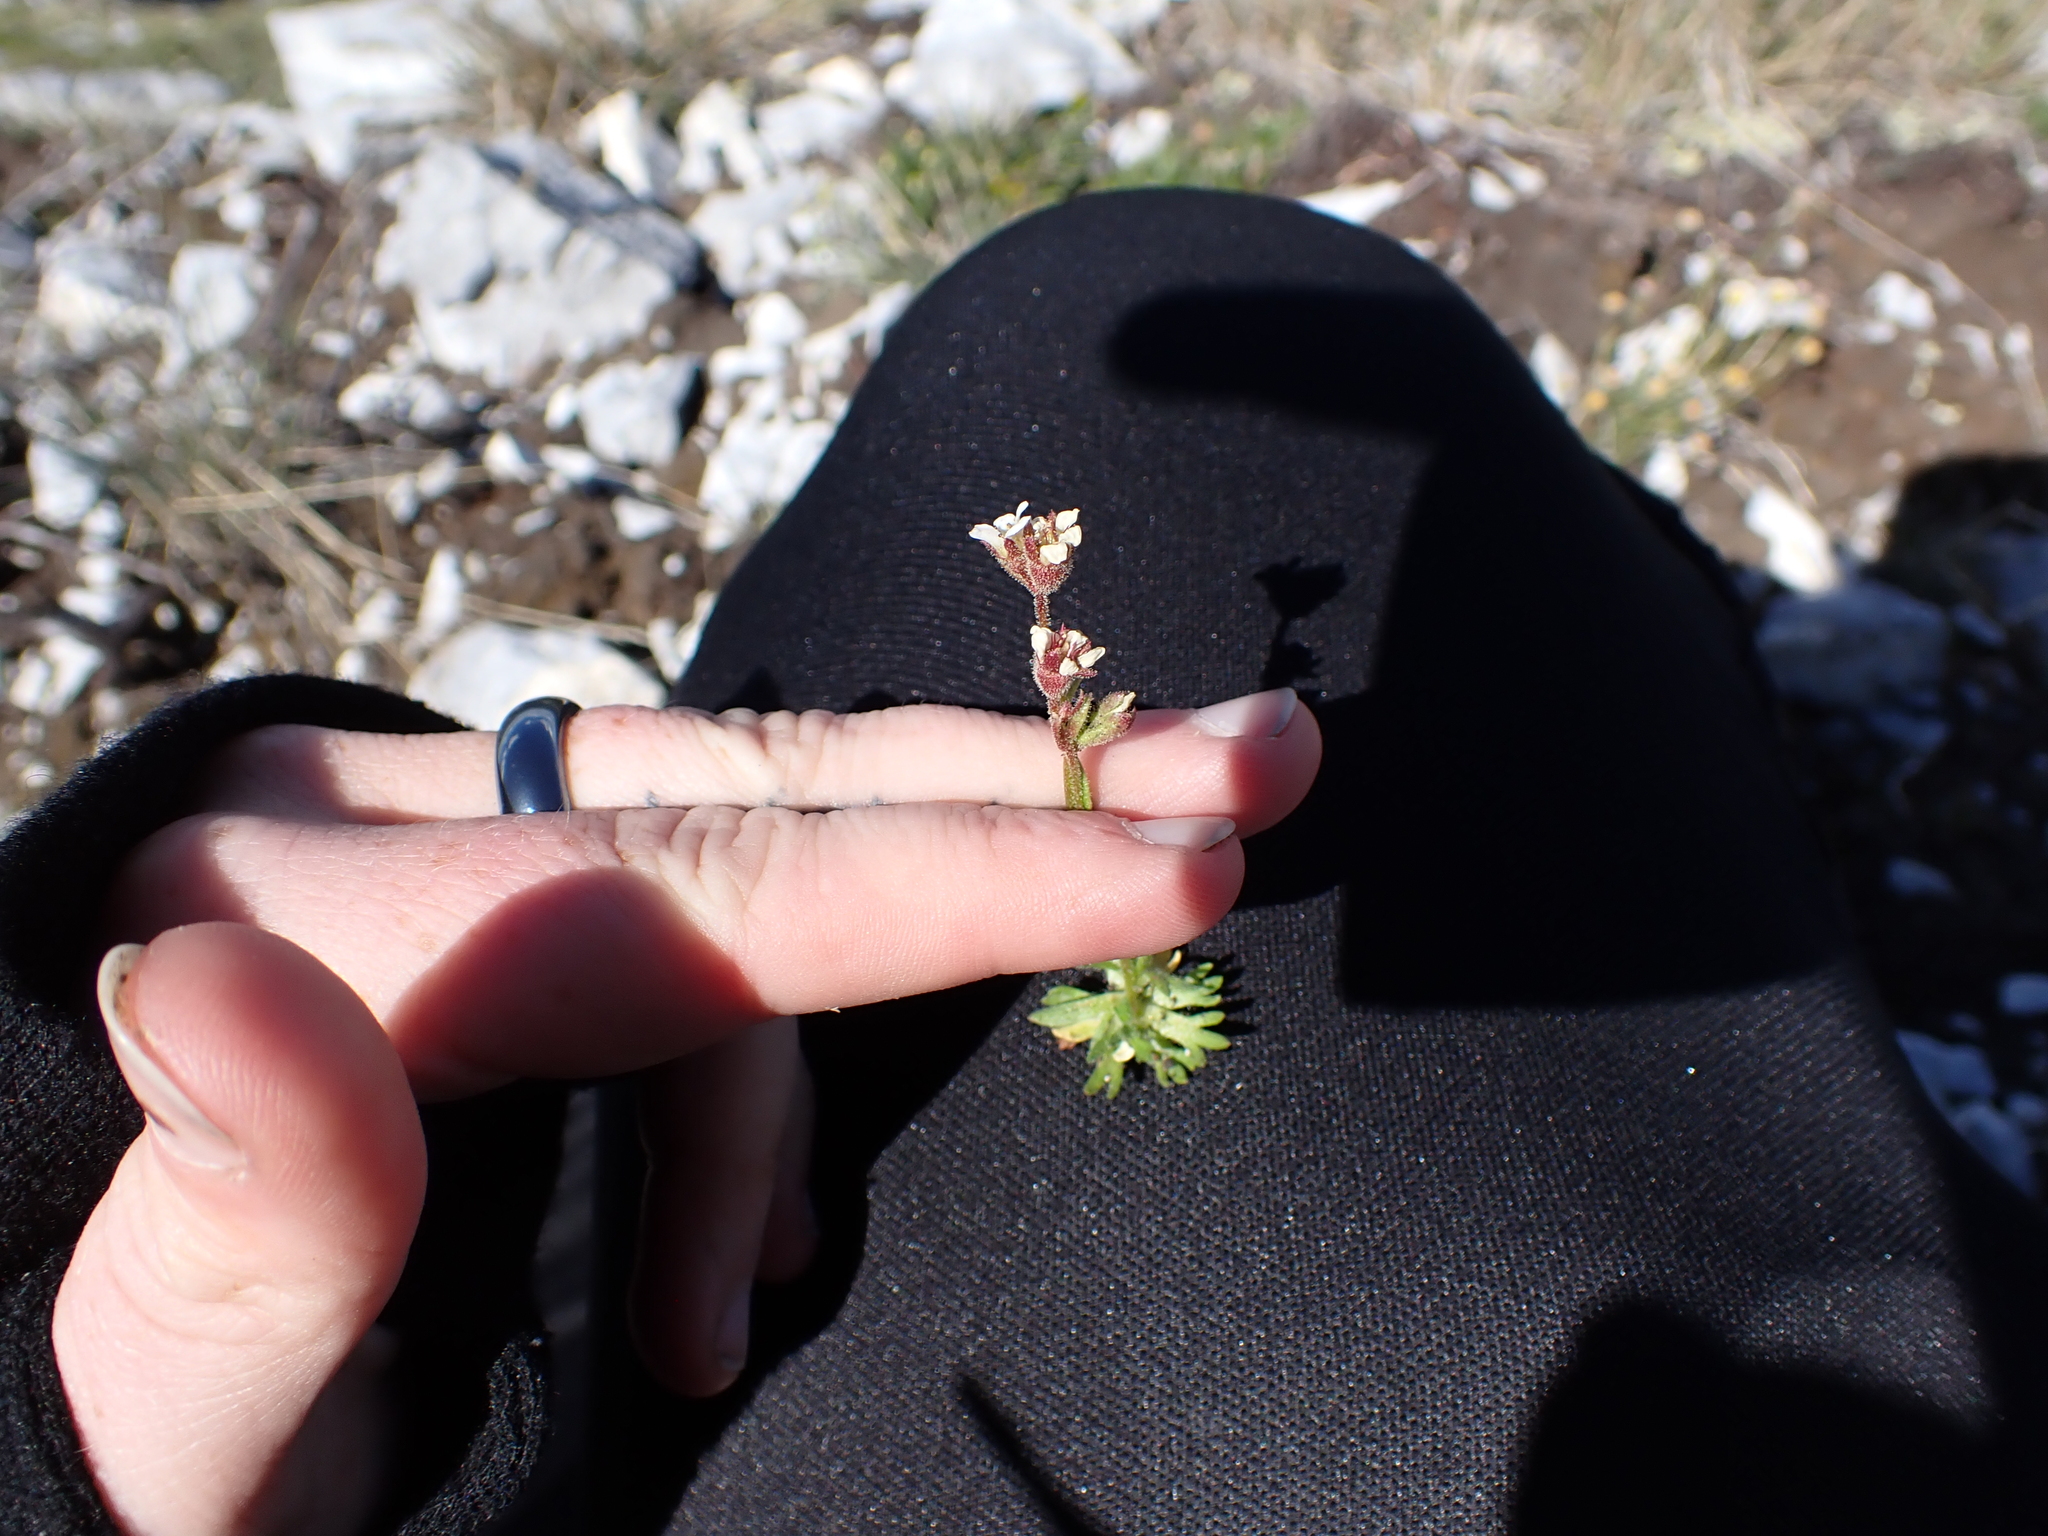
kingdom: Plantae
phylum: Tracheophyta
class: Magnoliopsida
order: Saxifragales
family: Saxifragaceae
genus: Saxifraga
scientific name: Saxifraga cespitosa
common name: Tufted saxifrage
